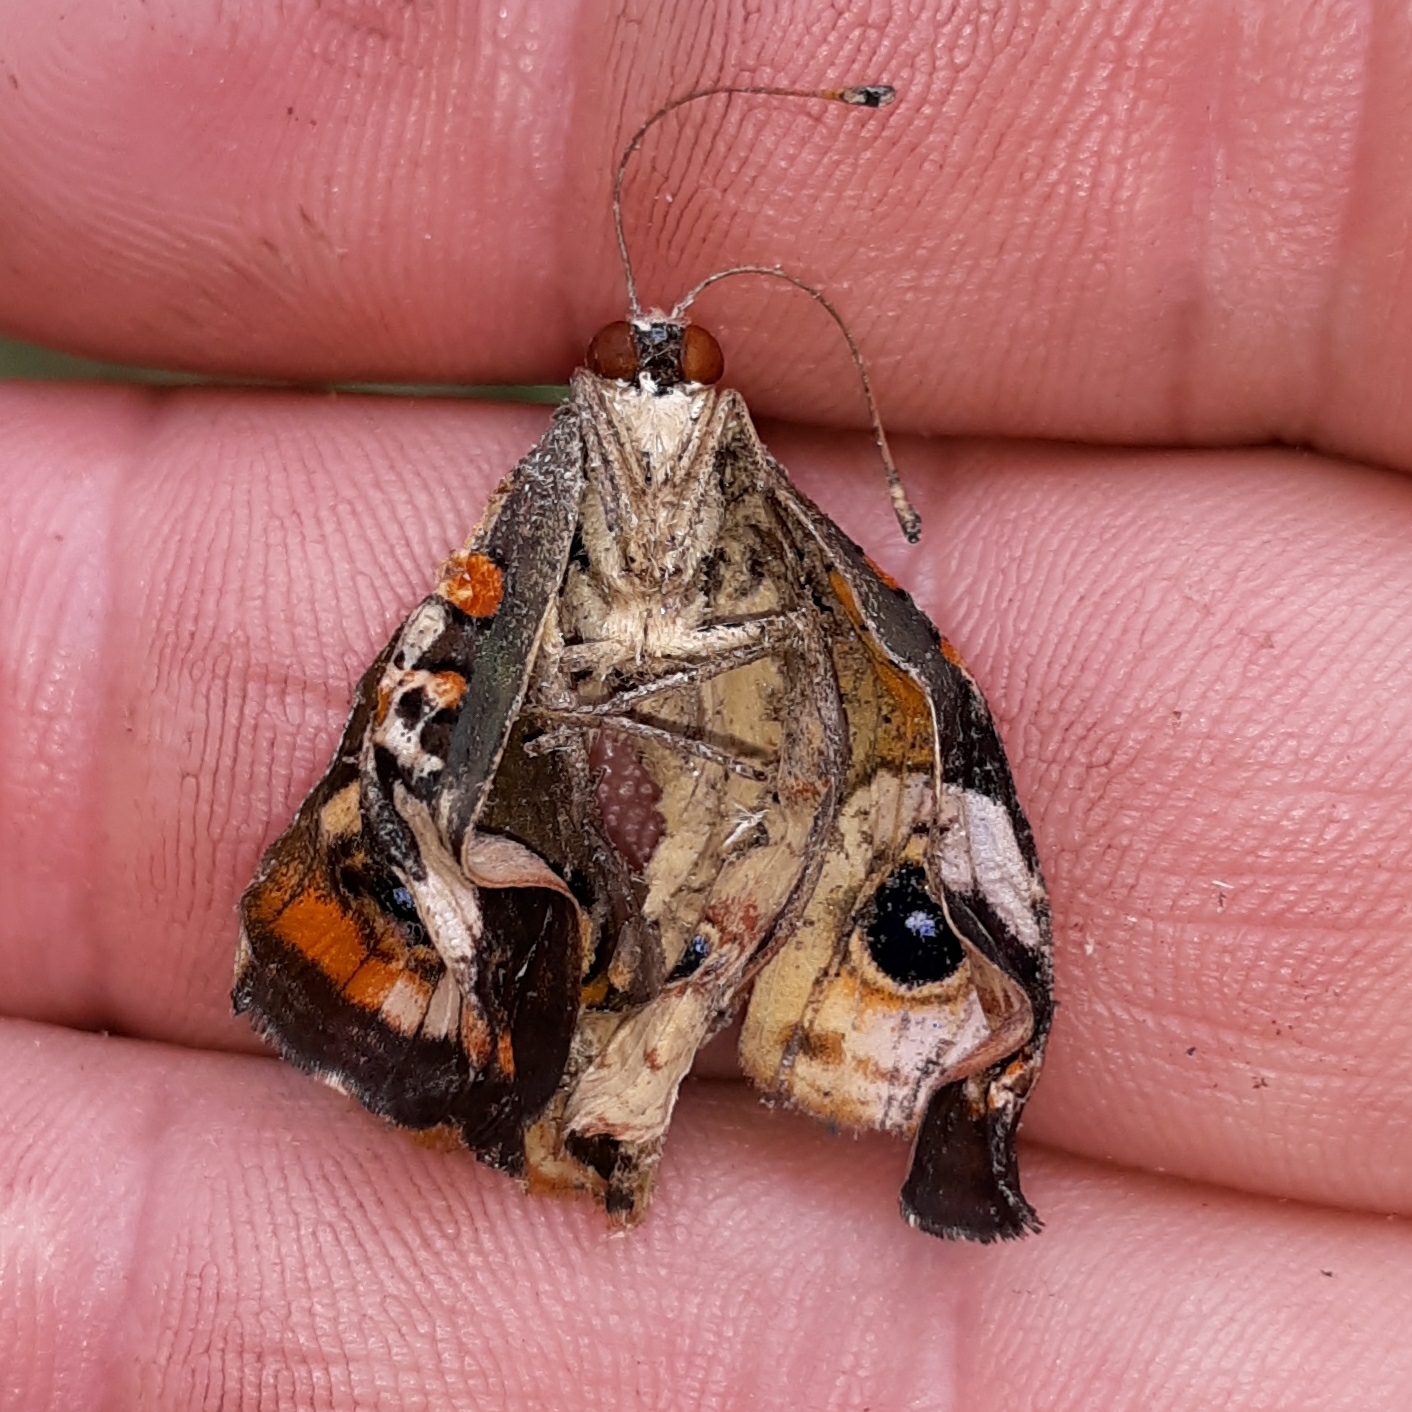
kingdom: Animalia
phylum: Arthropoda
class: Insecta
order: Lepidoptera
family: Nymphalidae
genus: Junonia
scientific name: Junonia coenia
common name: Common buckeye
